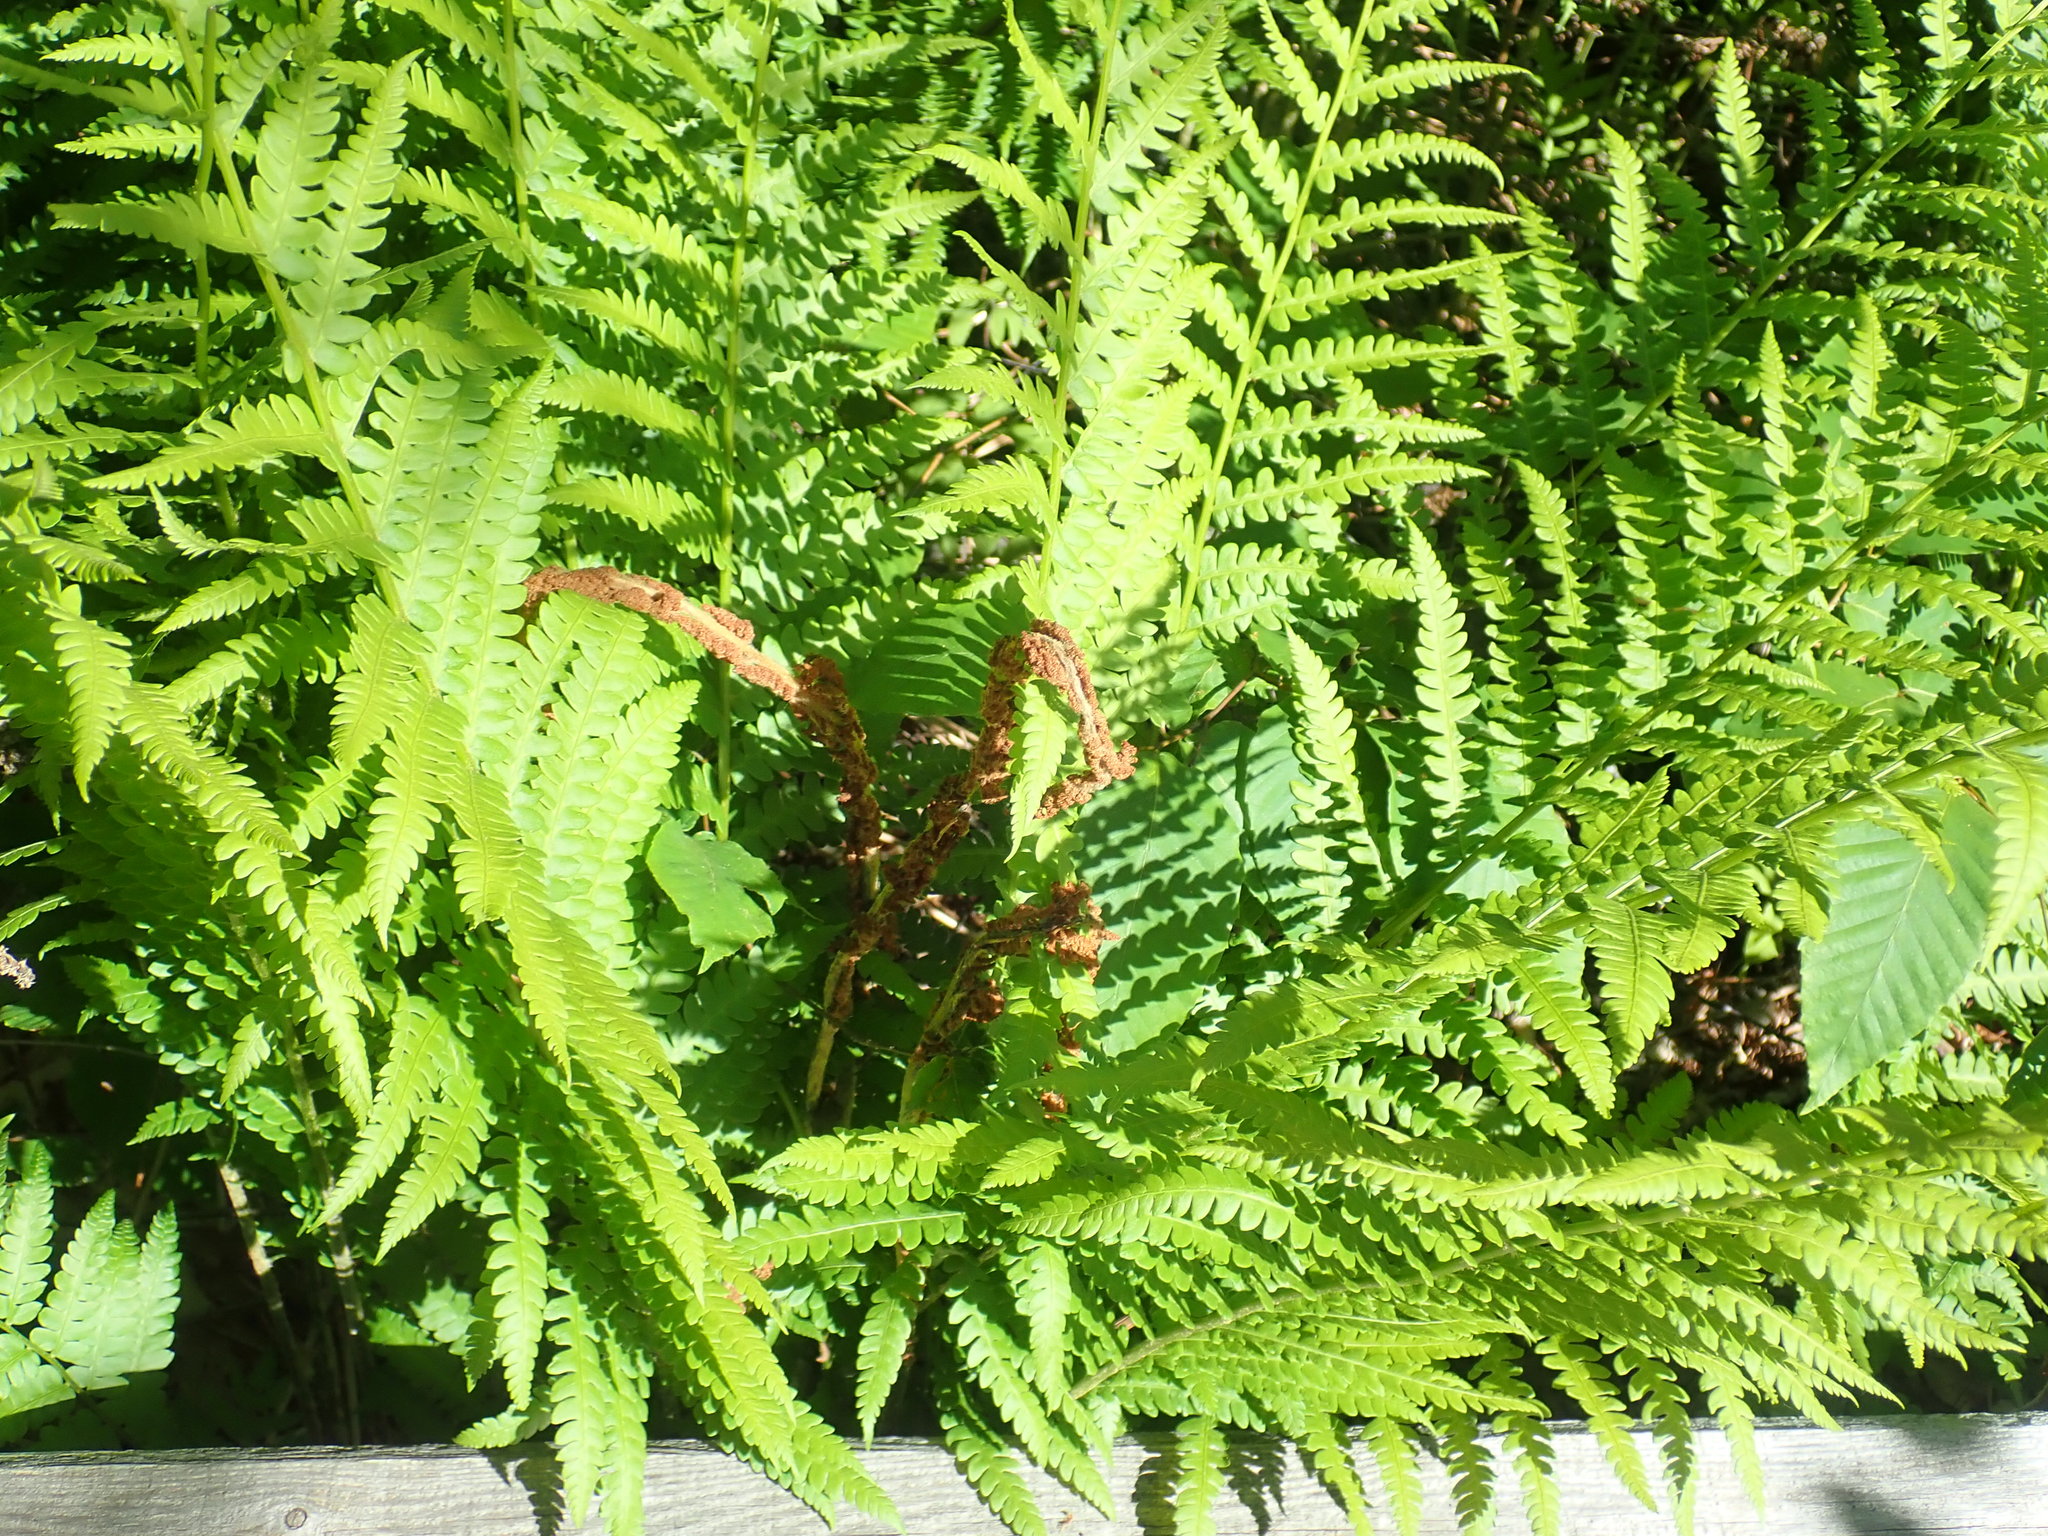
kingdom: Plantae
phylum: Tracheophyta
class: Polypodiopsida
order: Osmundales
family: Osmundaceae
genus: Osmundastrum
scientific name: Osmundastrum cinnamomeum
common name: Cinnamon fern
